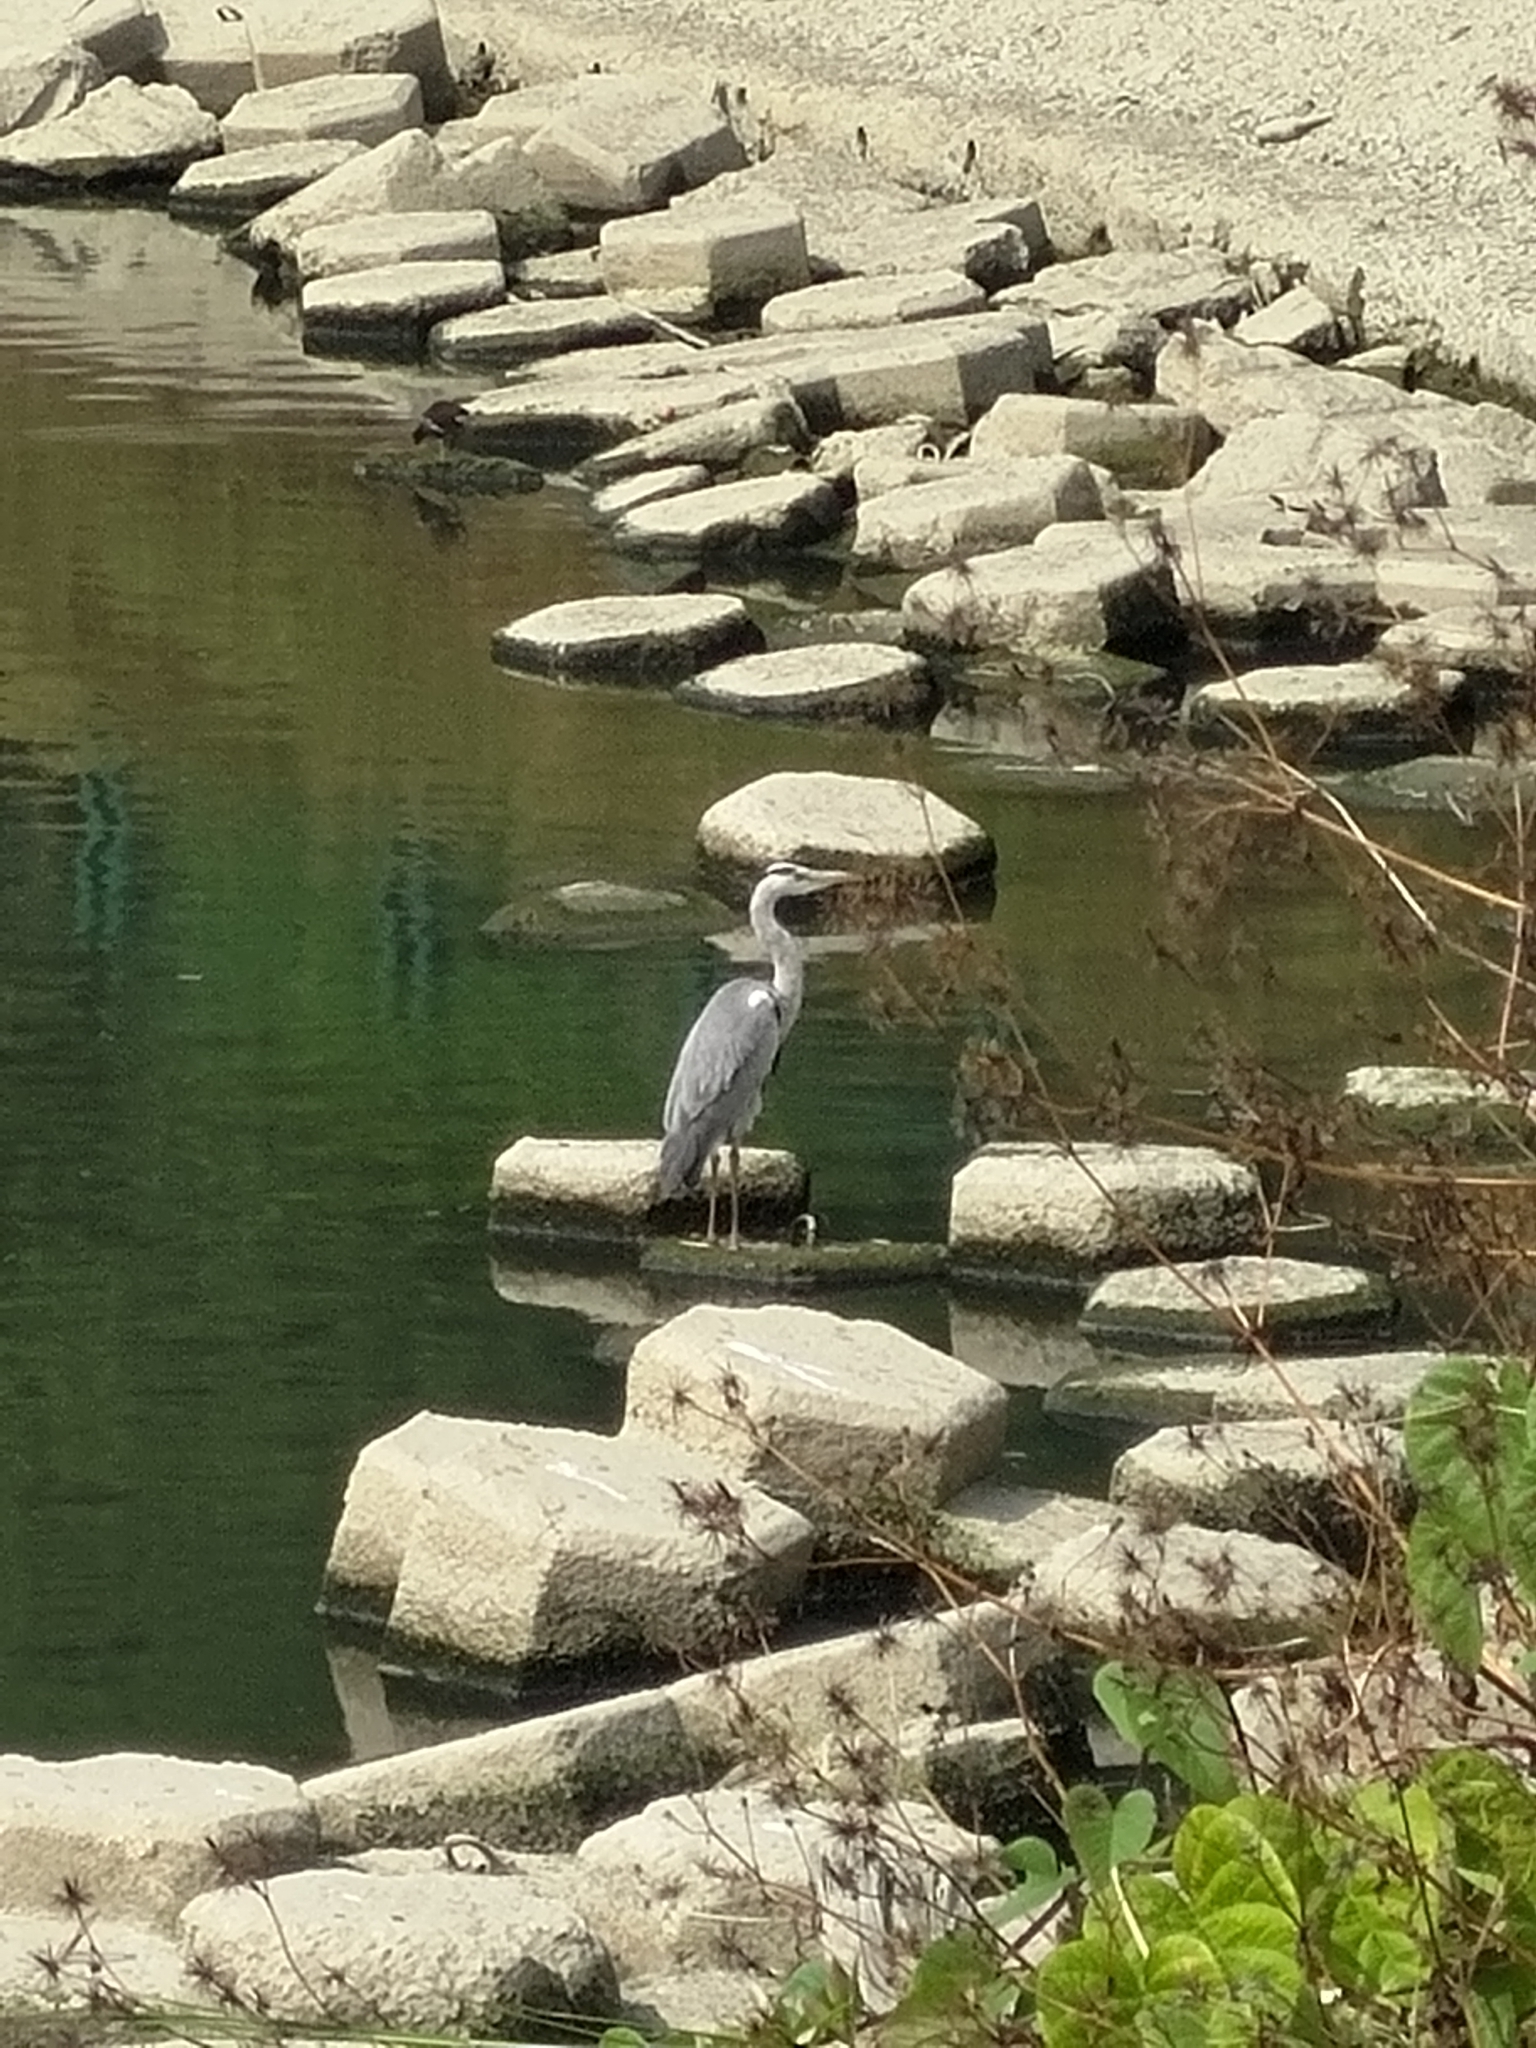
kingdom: Animalia
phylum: Chordata
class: Aves
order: Pelecaniformes
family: Ardeidae
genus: Ardea
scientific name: Ardea cinerea
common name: Grey heron
